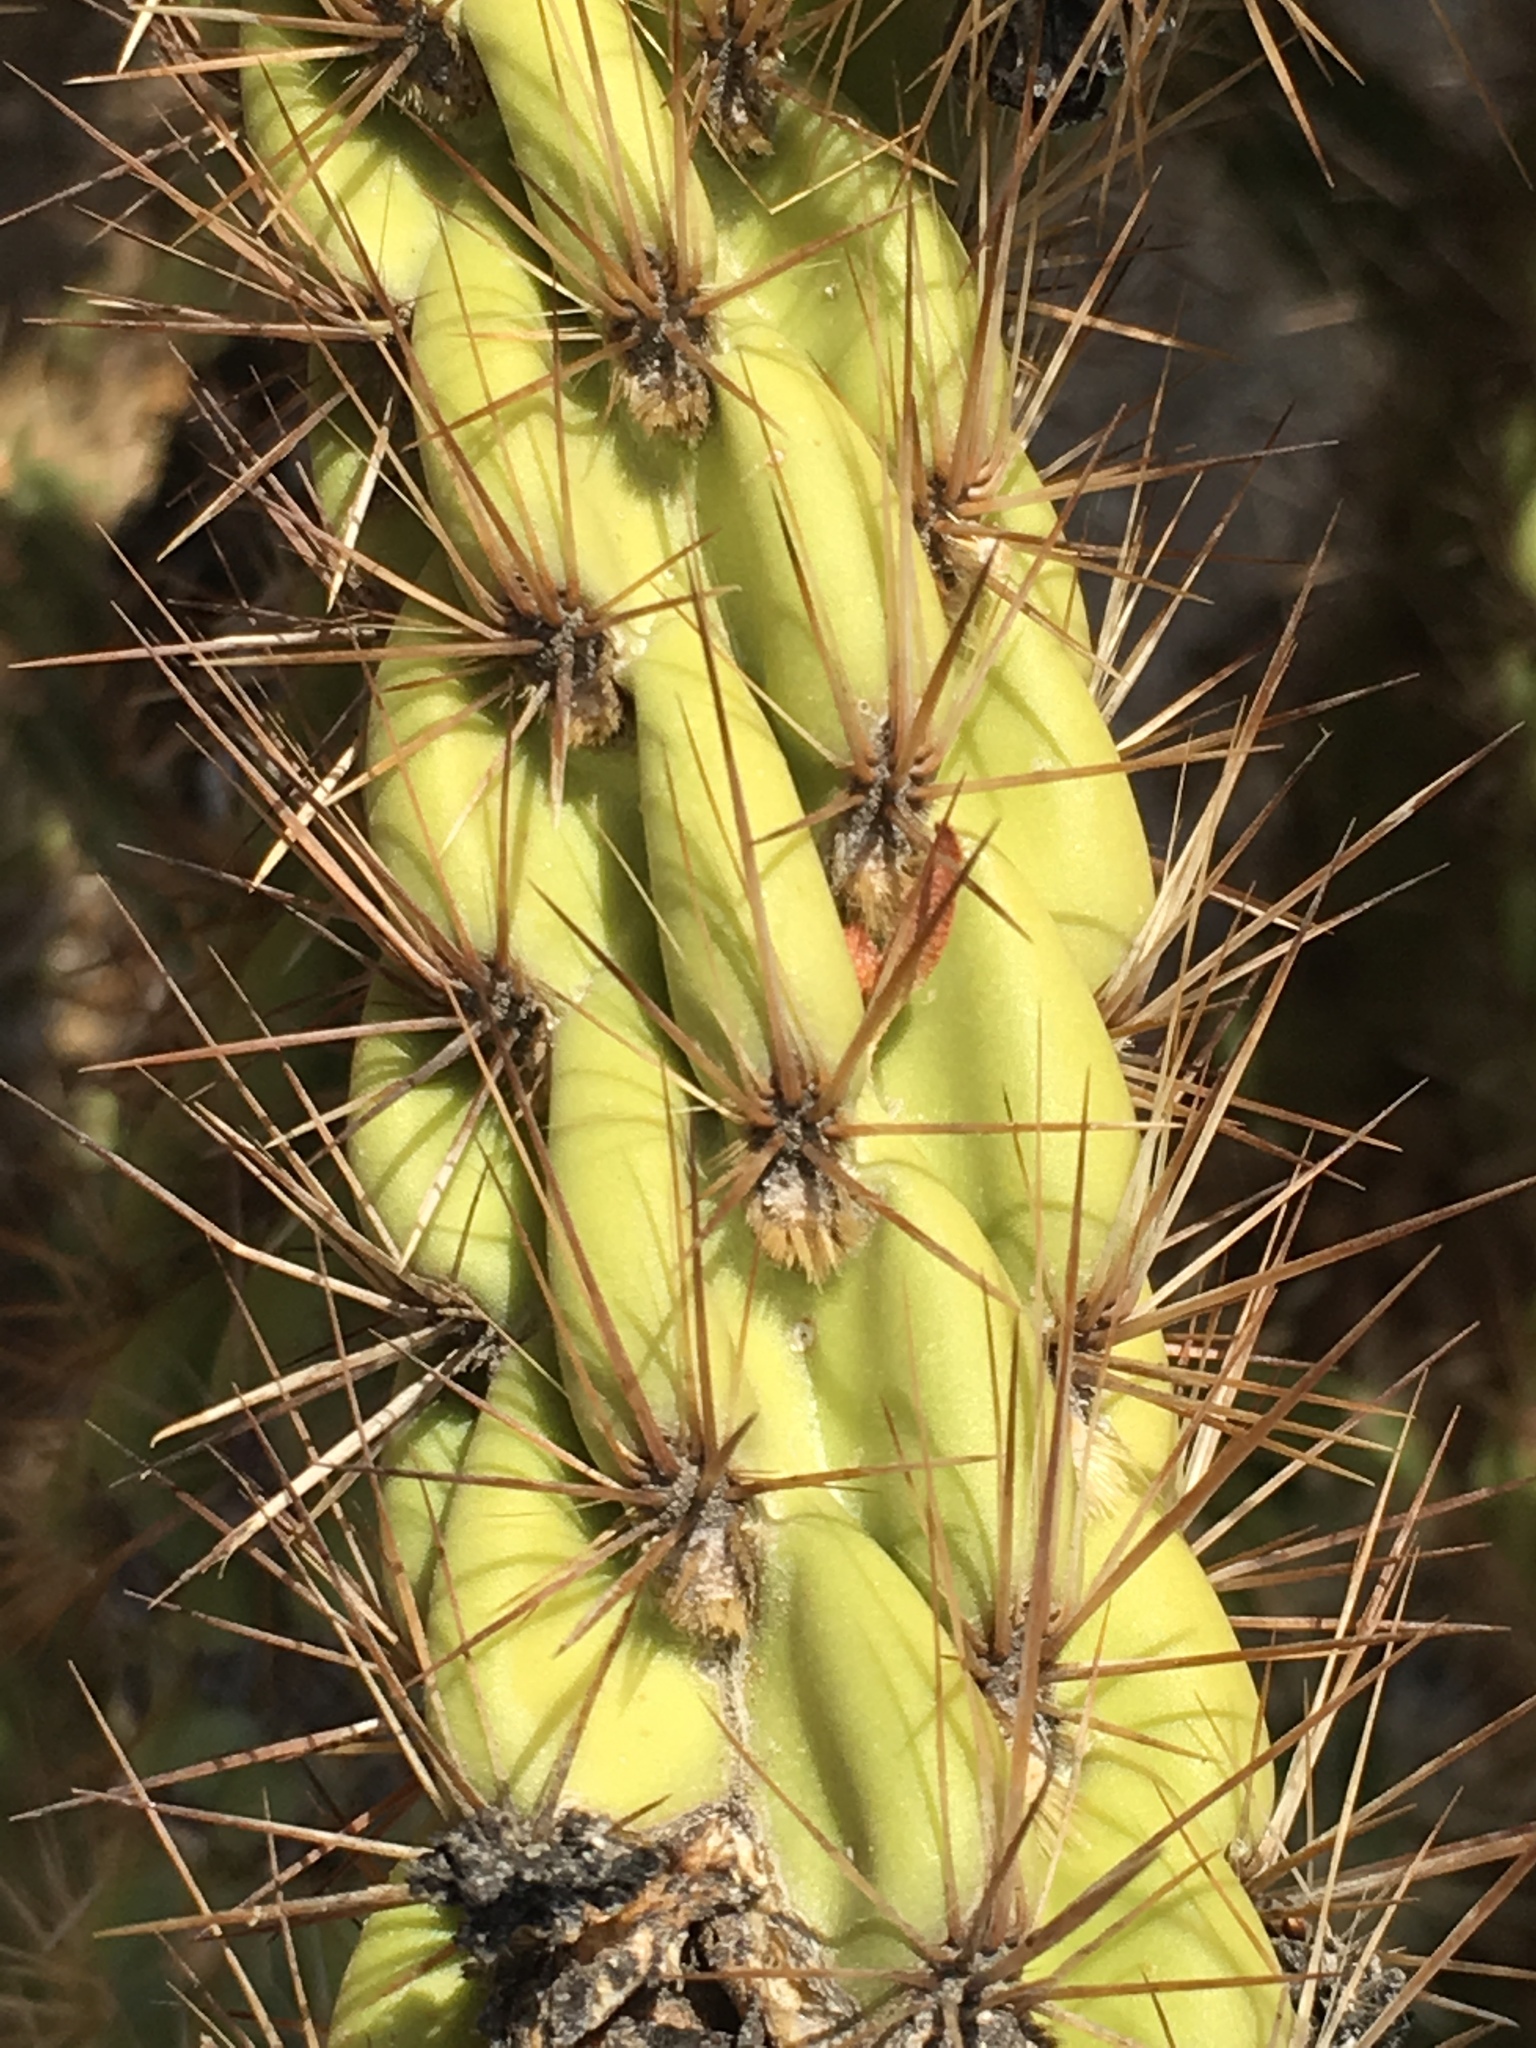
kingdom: Plantae
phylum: Tracheophyta
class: Magnoliopsida
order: Caryophyllales
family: Cactaceae
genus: Cylindropuntia
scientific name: Cylindropuntia ganderi
